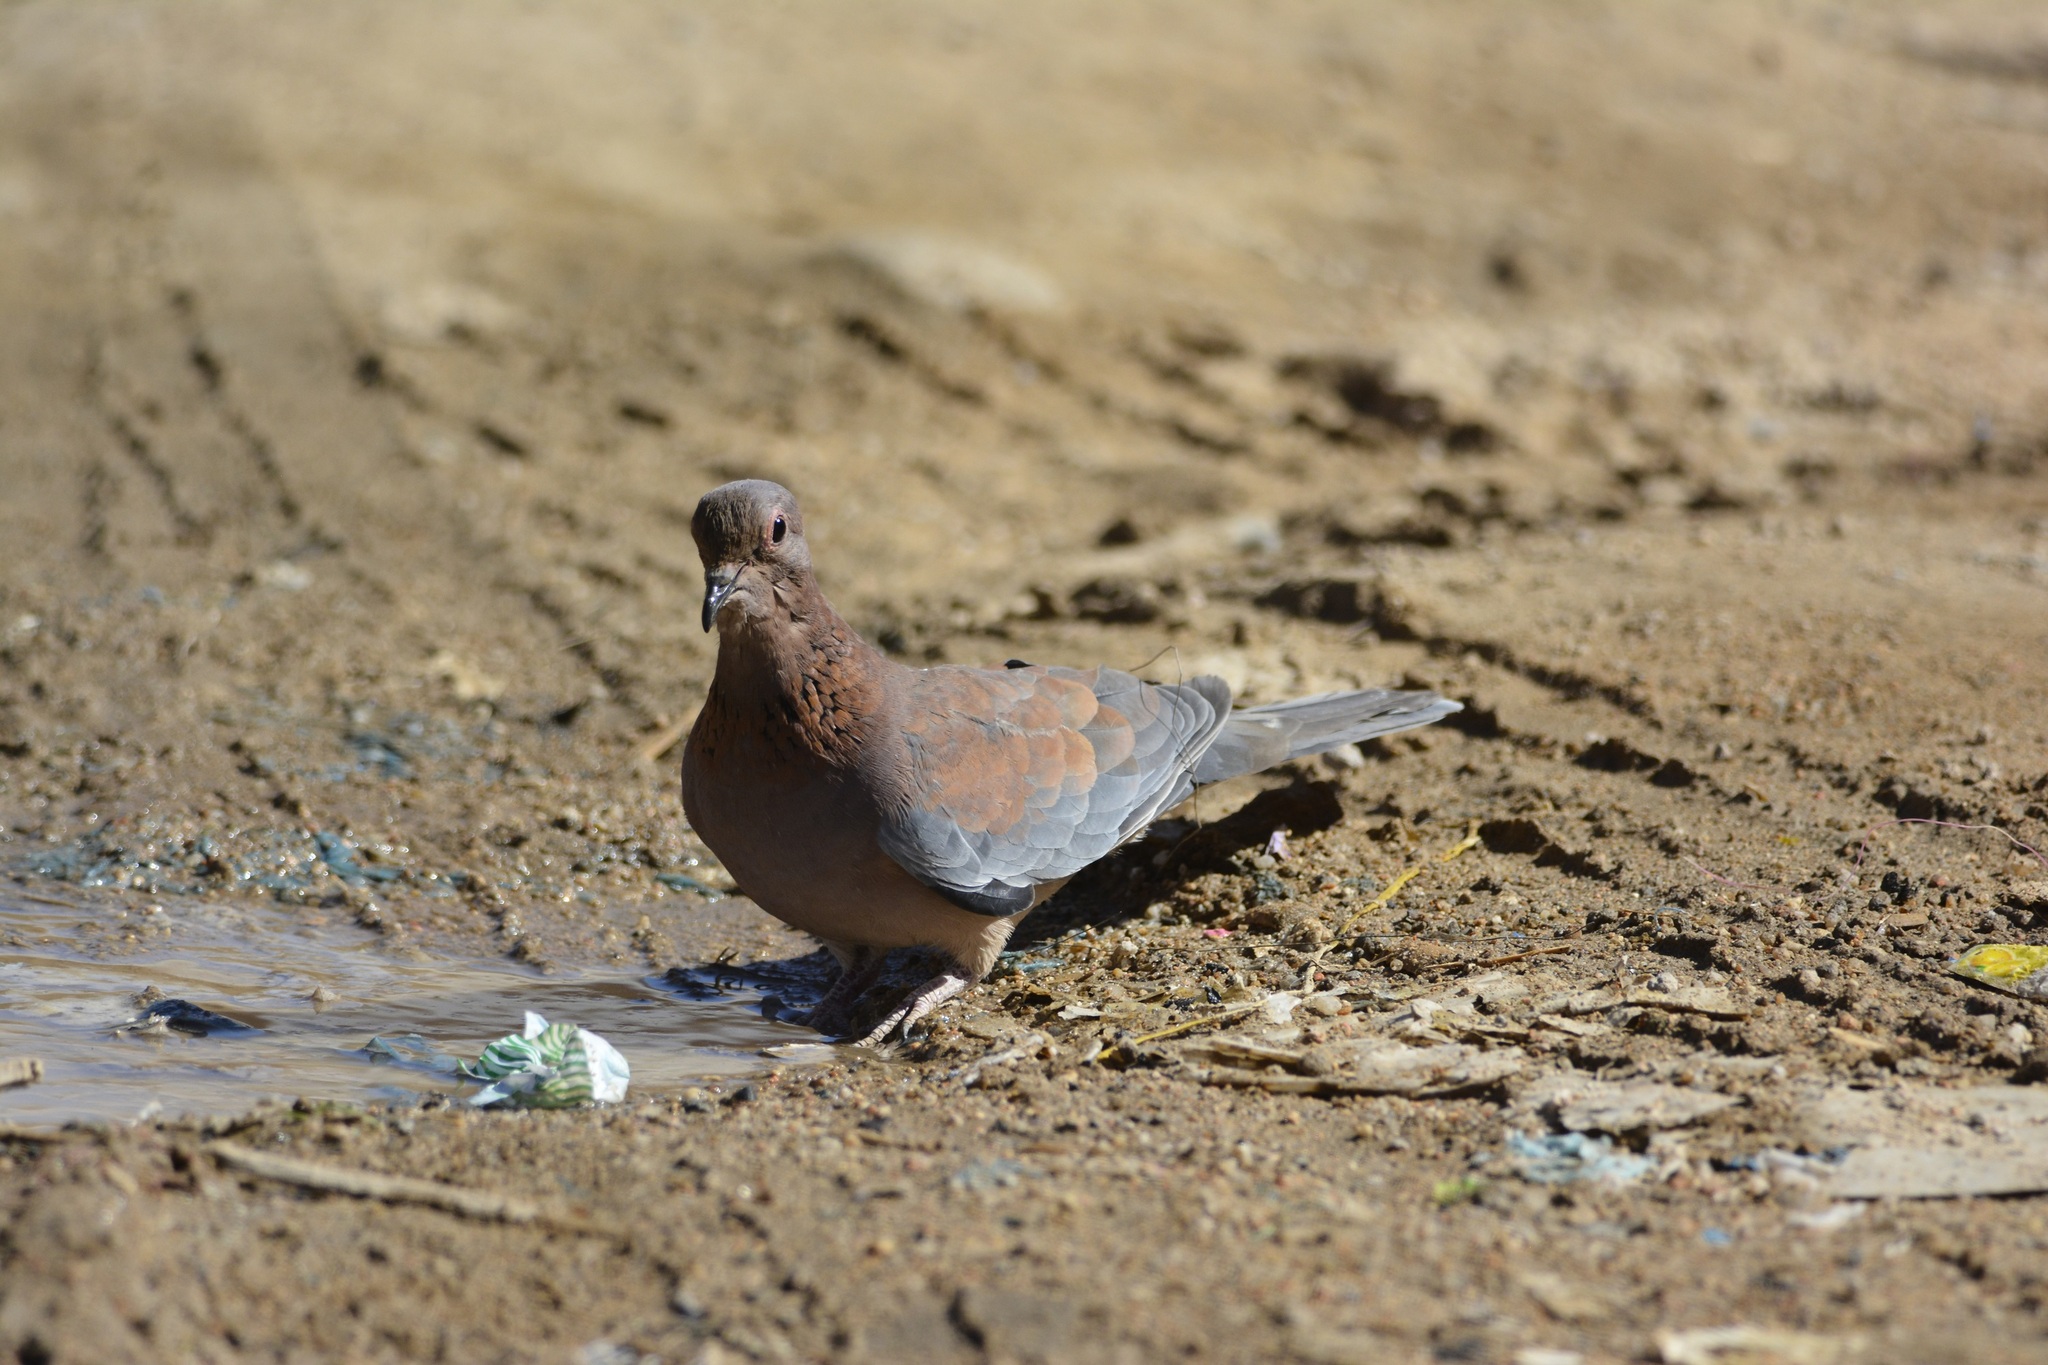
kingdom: Animalia
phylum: Chordata
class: Aves
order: Columbiformes
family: Columbidae
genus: Spilopelia
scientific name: Spilopelia senegalensis
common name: Laughing dove
